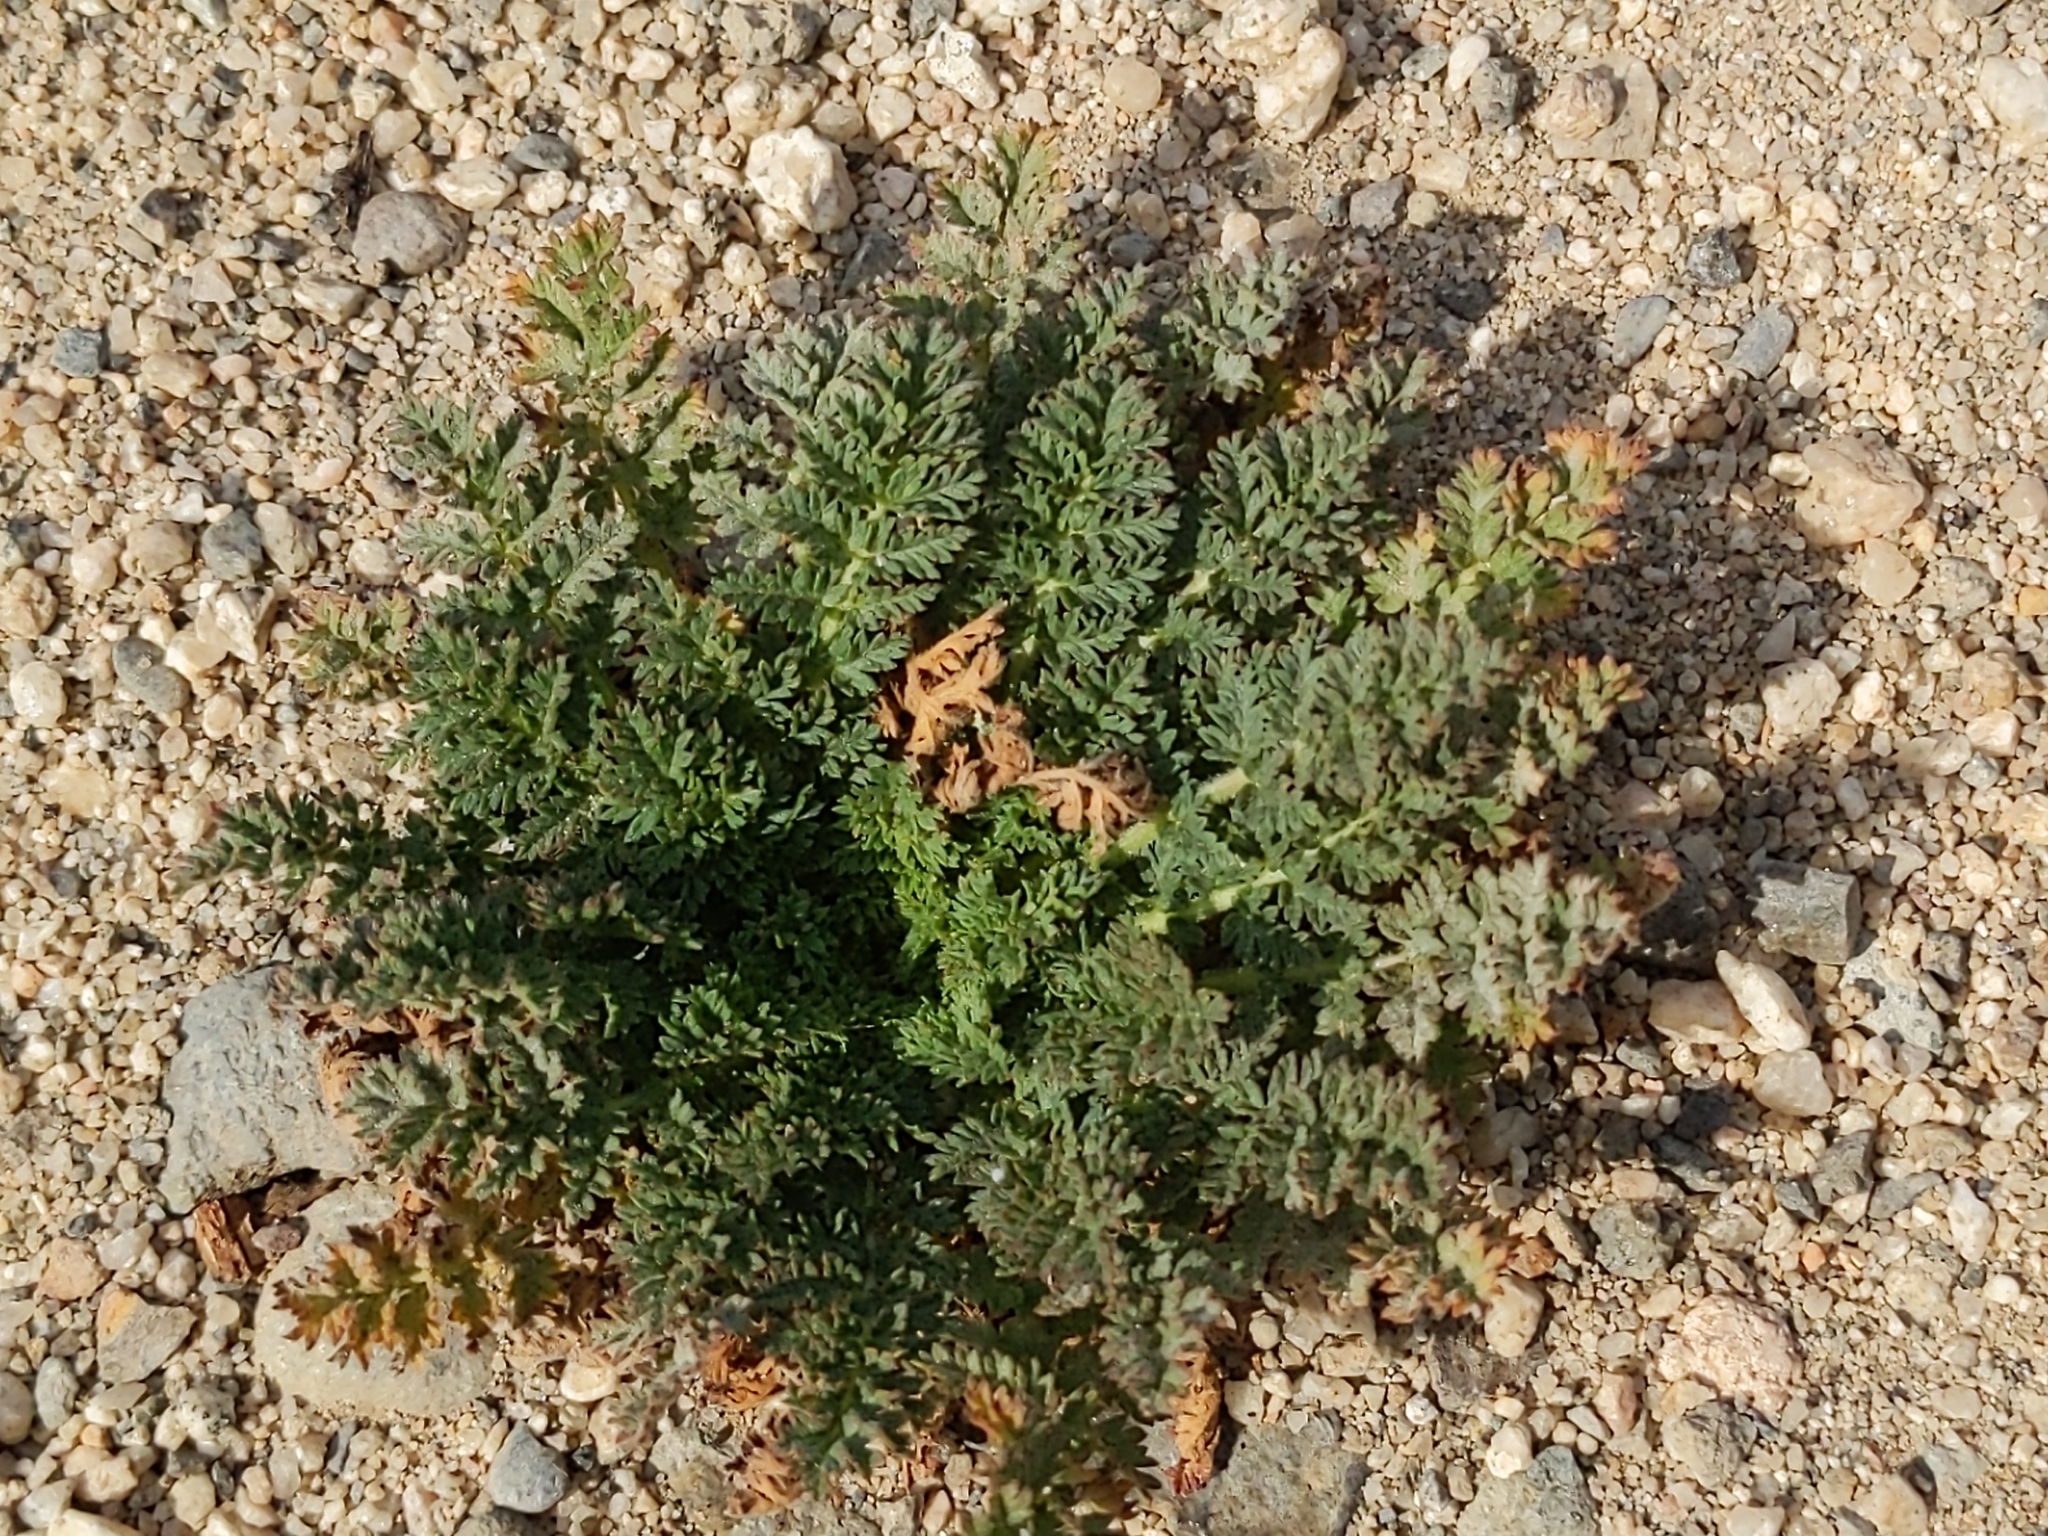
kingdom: Plantae
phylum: Tracheophyta
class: Magnoliopsida
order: Geraniales
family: Geraniaceae
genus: Erodium
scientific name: Erodium cicutarium
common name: Common stork's-bill
